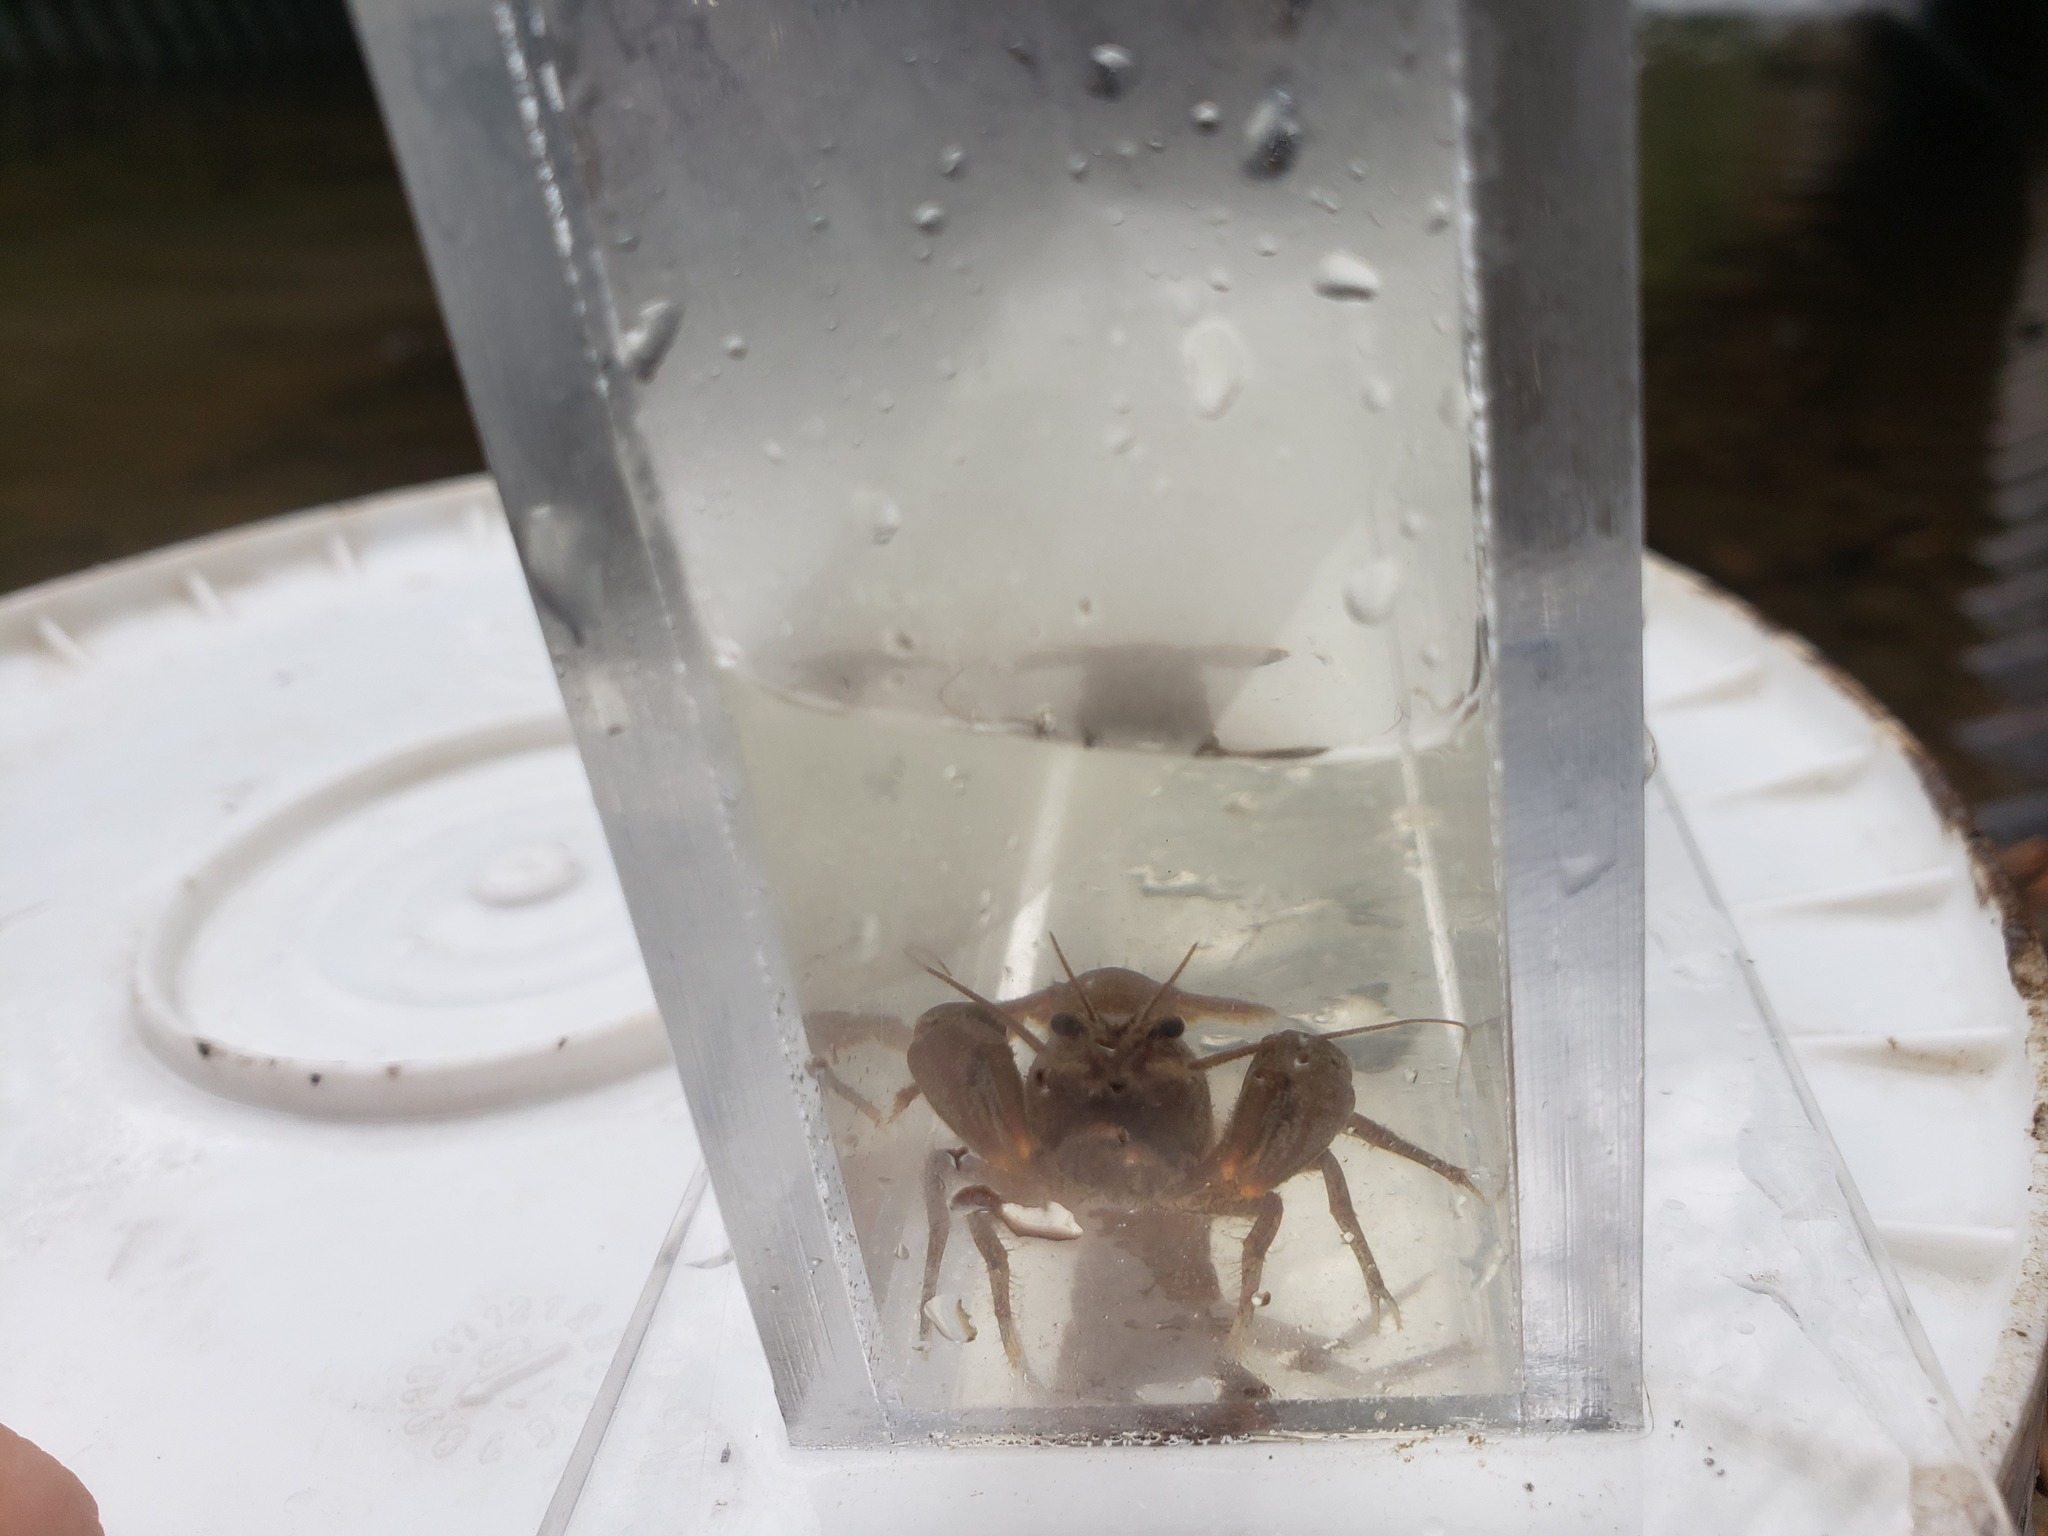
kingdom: Animalia
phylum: Arthropoda
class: Malacostraca
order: Decapoda
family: Cambaridae
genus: Cambarus
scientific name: Cambarus robustus
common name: Big water crayfish
